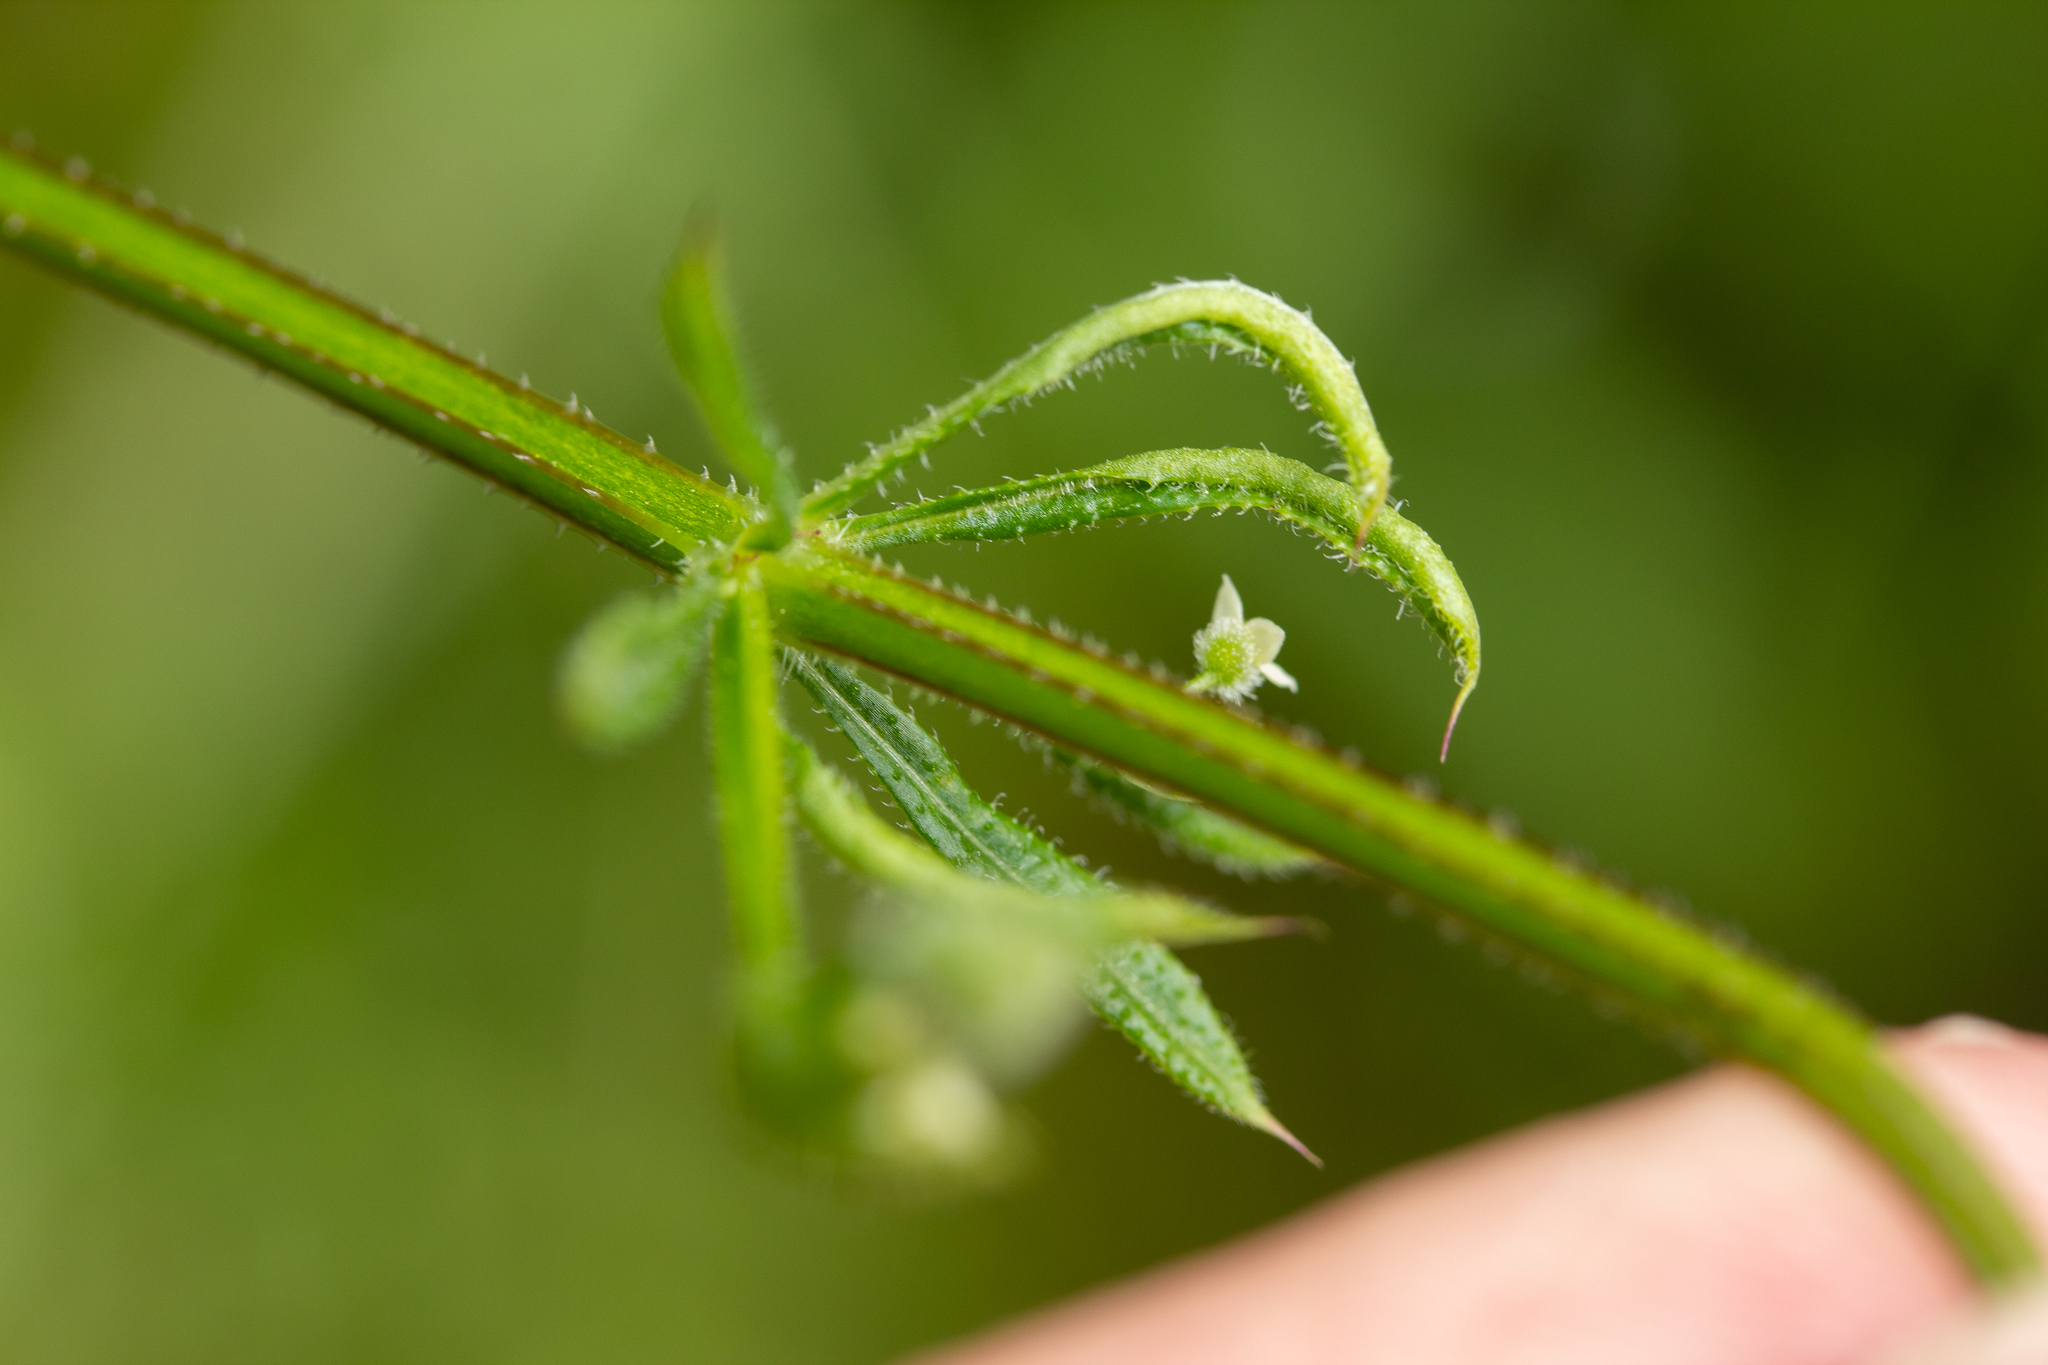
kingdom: Animalia
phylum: Arthropoda
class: Arachnida
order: Trombidiformes
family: Eriophyidae
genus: Cecidophyes
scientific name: Cecidophyes rouhollahi
